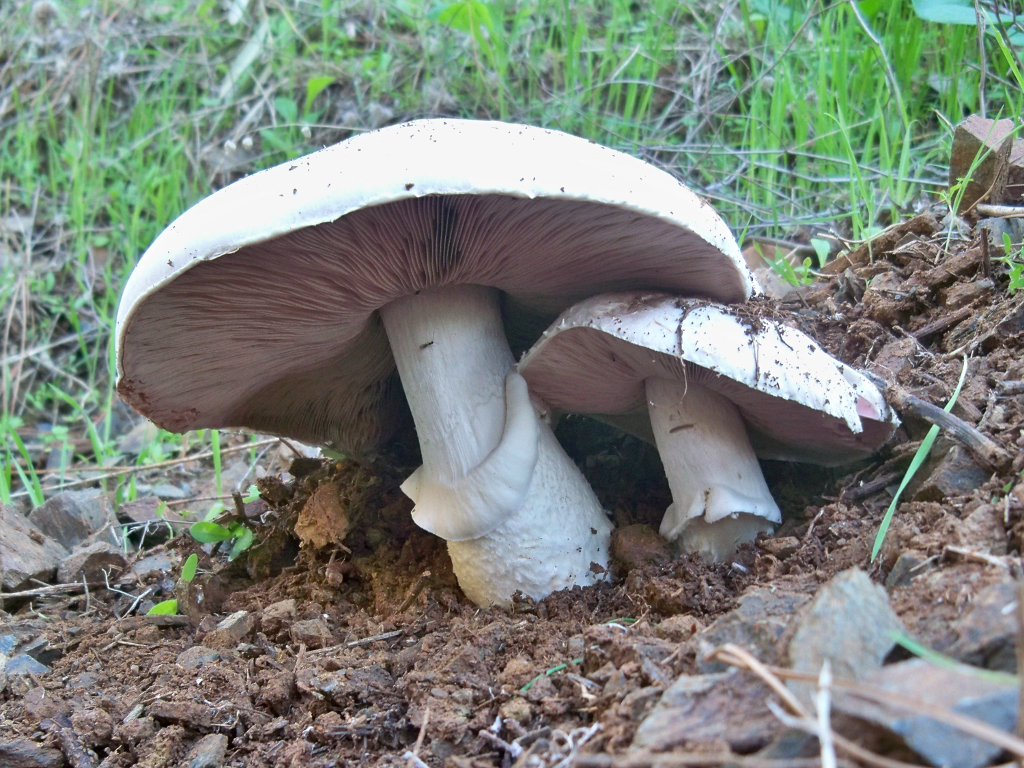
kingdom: Fungi
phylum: Basidiomycota
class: Agaricomycetes
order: Agaricales
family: Agaricaceae
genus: Agaricus
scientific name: Agaricus campestris
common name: Field mushroom
